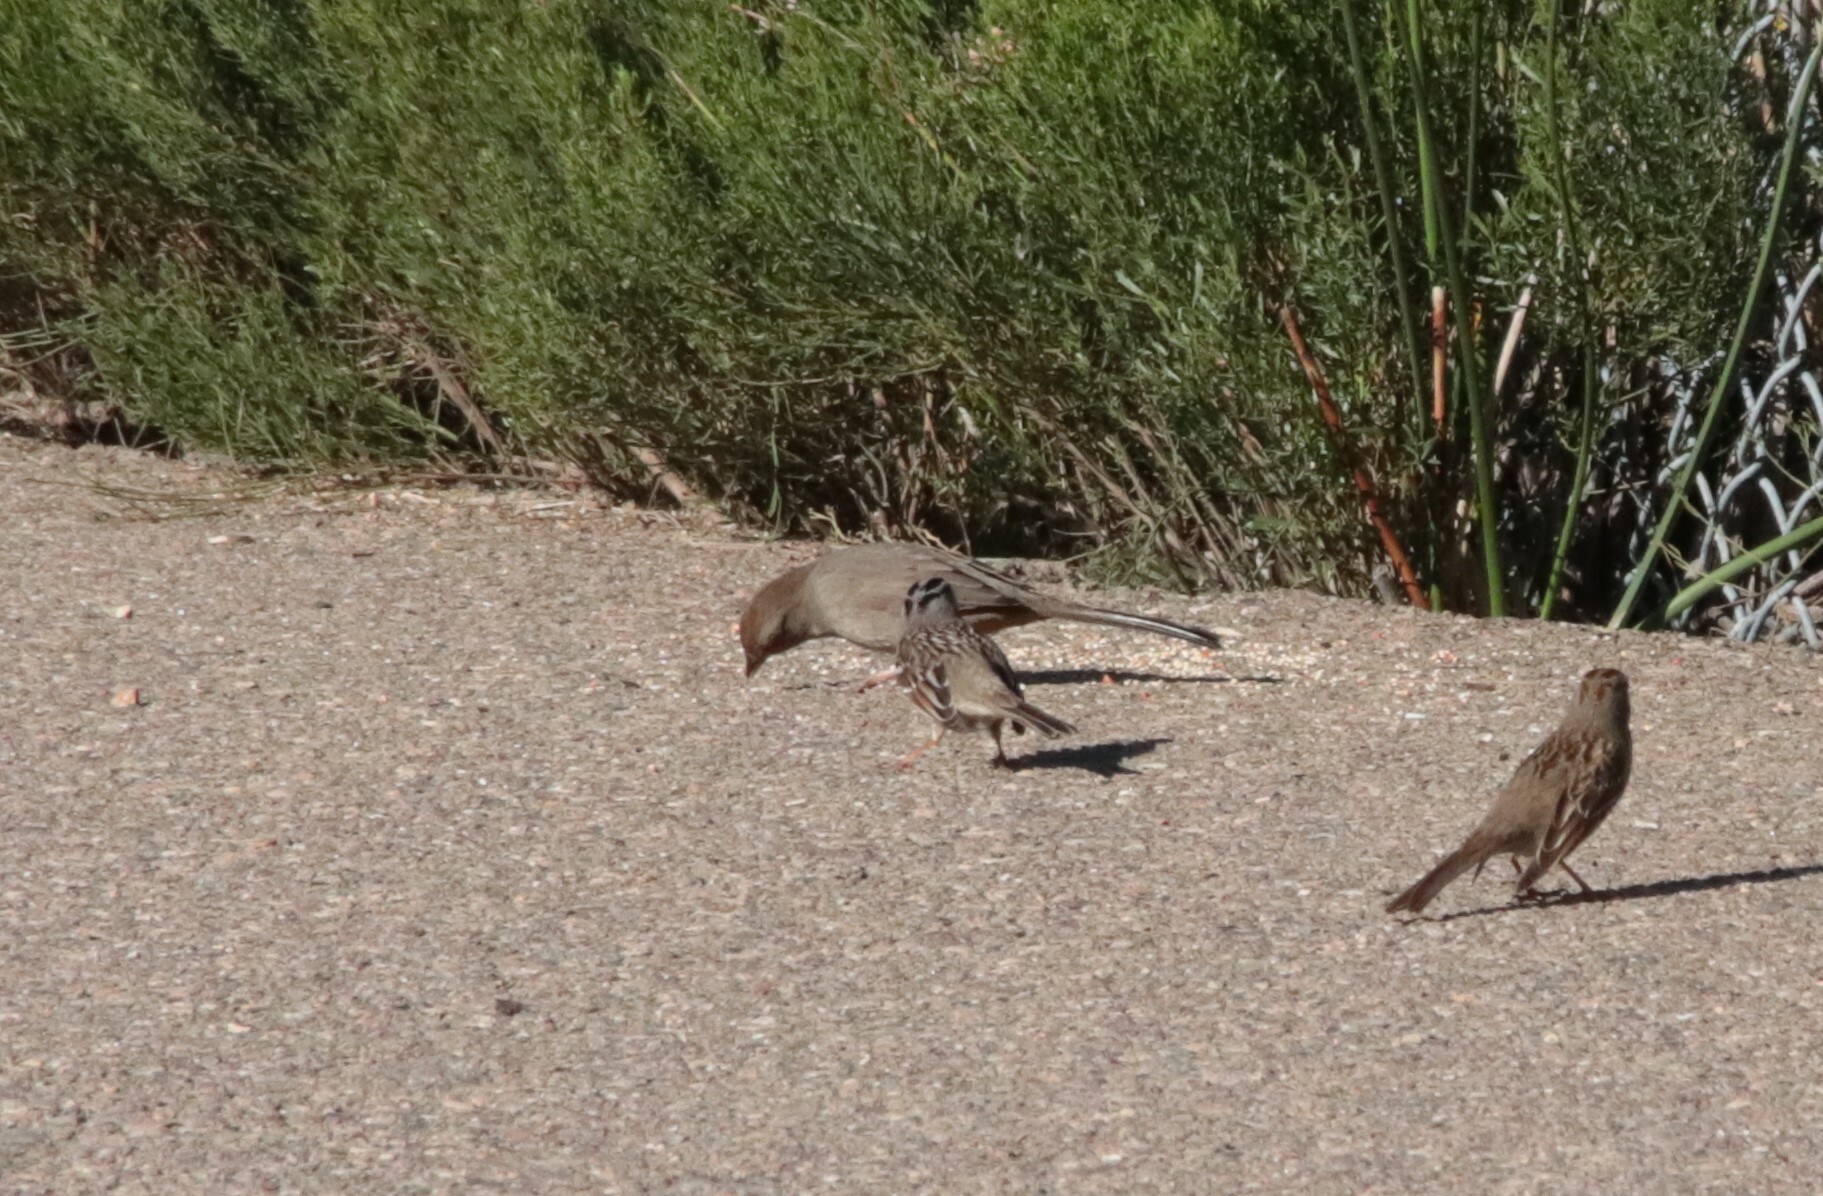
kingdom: Animalia
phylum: Chordata
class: Aves
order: Passeriformes
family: Passerellidae
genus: Melozone
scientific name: Melozone crissalis
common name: California towhee
